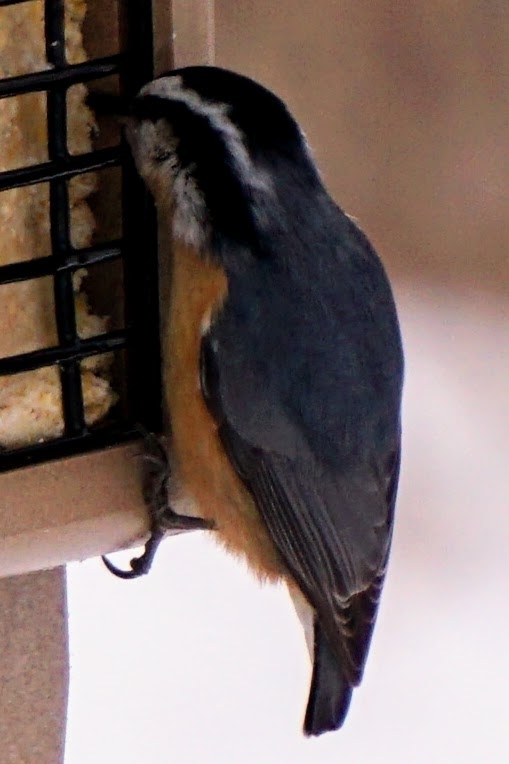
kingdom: Animalia
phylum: Chordata
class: Aves
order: Passeriformes
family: Sittidae
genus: Sitta
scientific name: Sitta canadensis
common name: Red-breasted nuthatch
